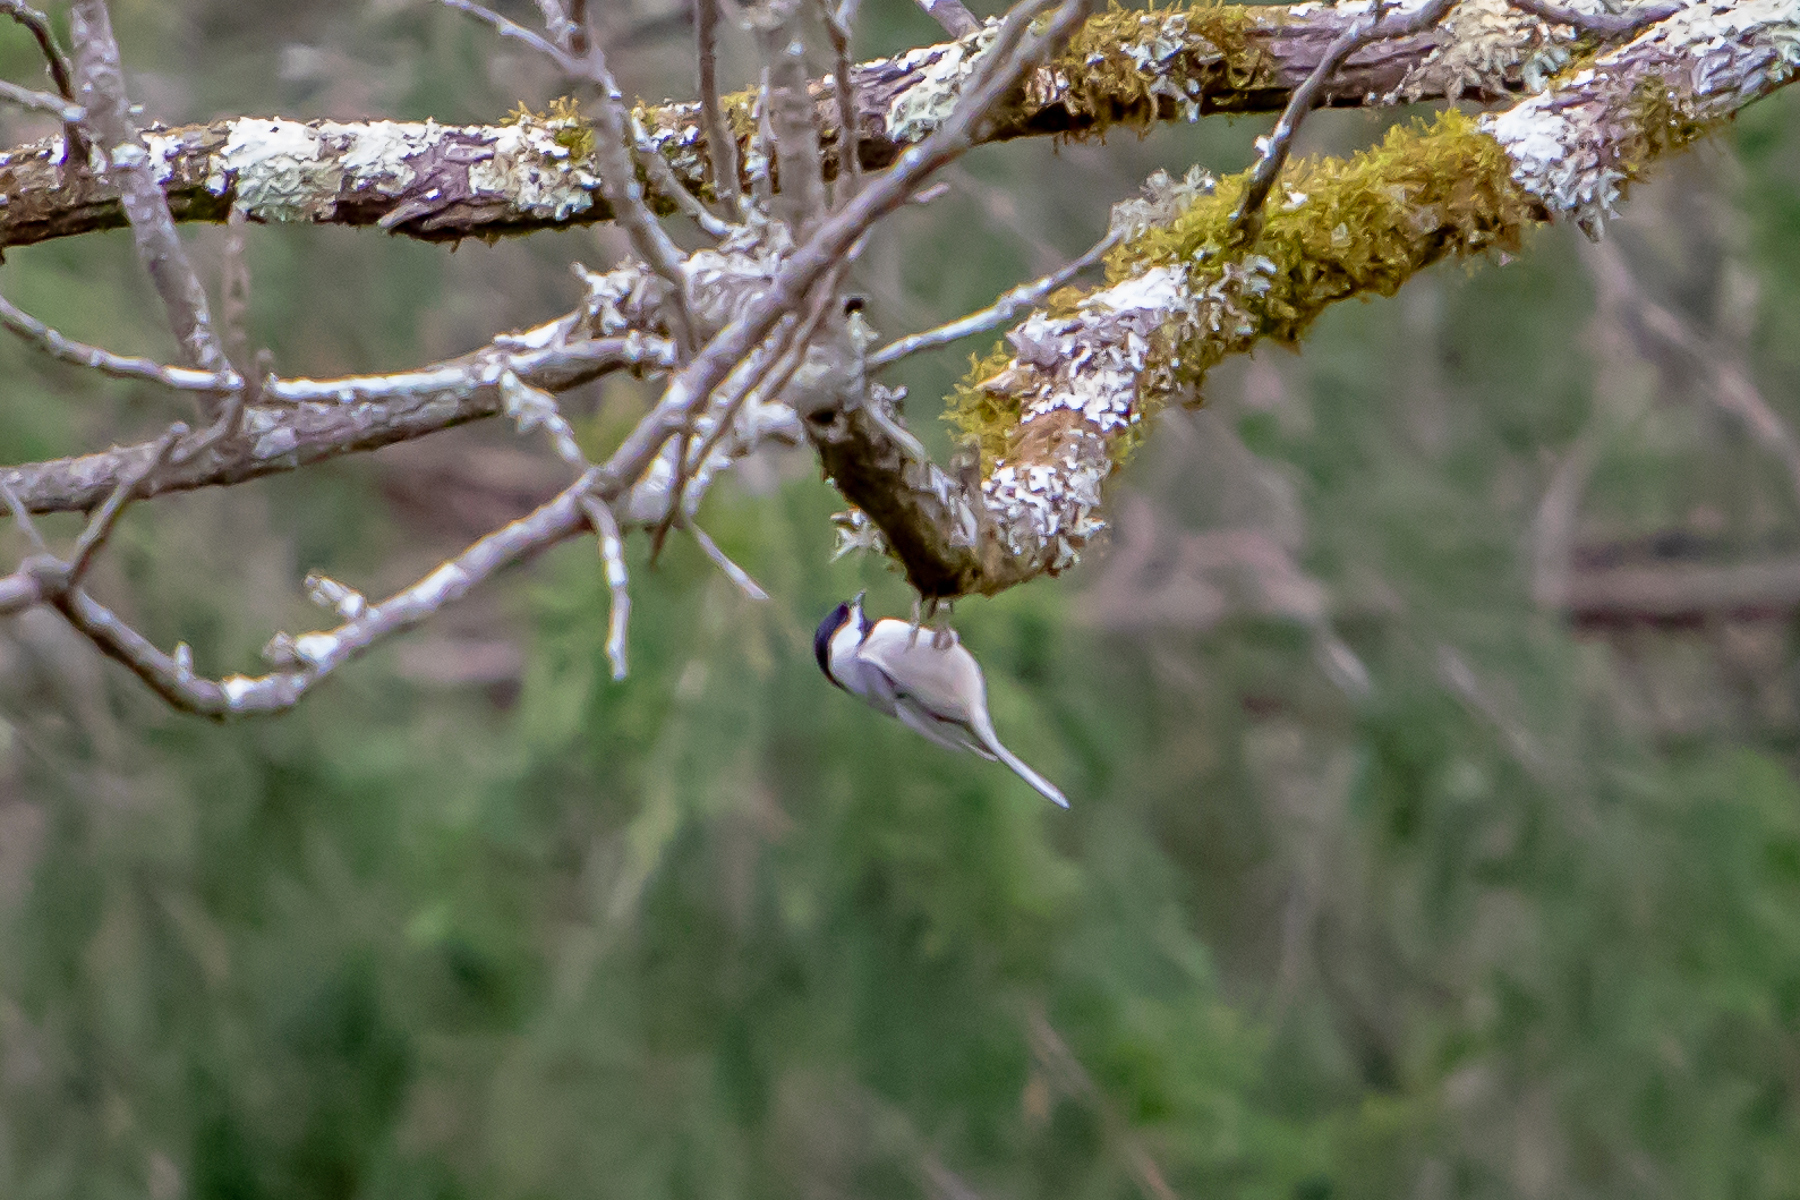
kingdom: Animalia
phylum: Chordata
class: Aves
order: Passeriformes
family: Paridae
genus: Poecile
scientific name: Poecile carolinensis
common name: Carolina chickadee
